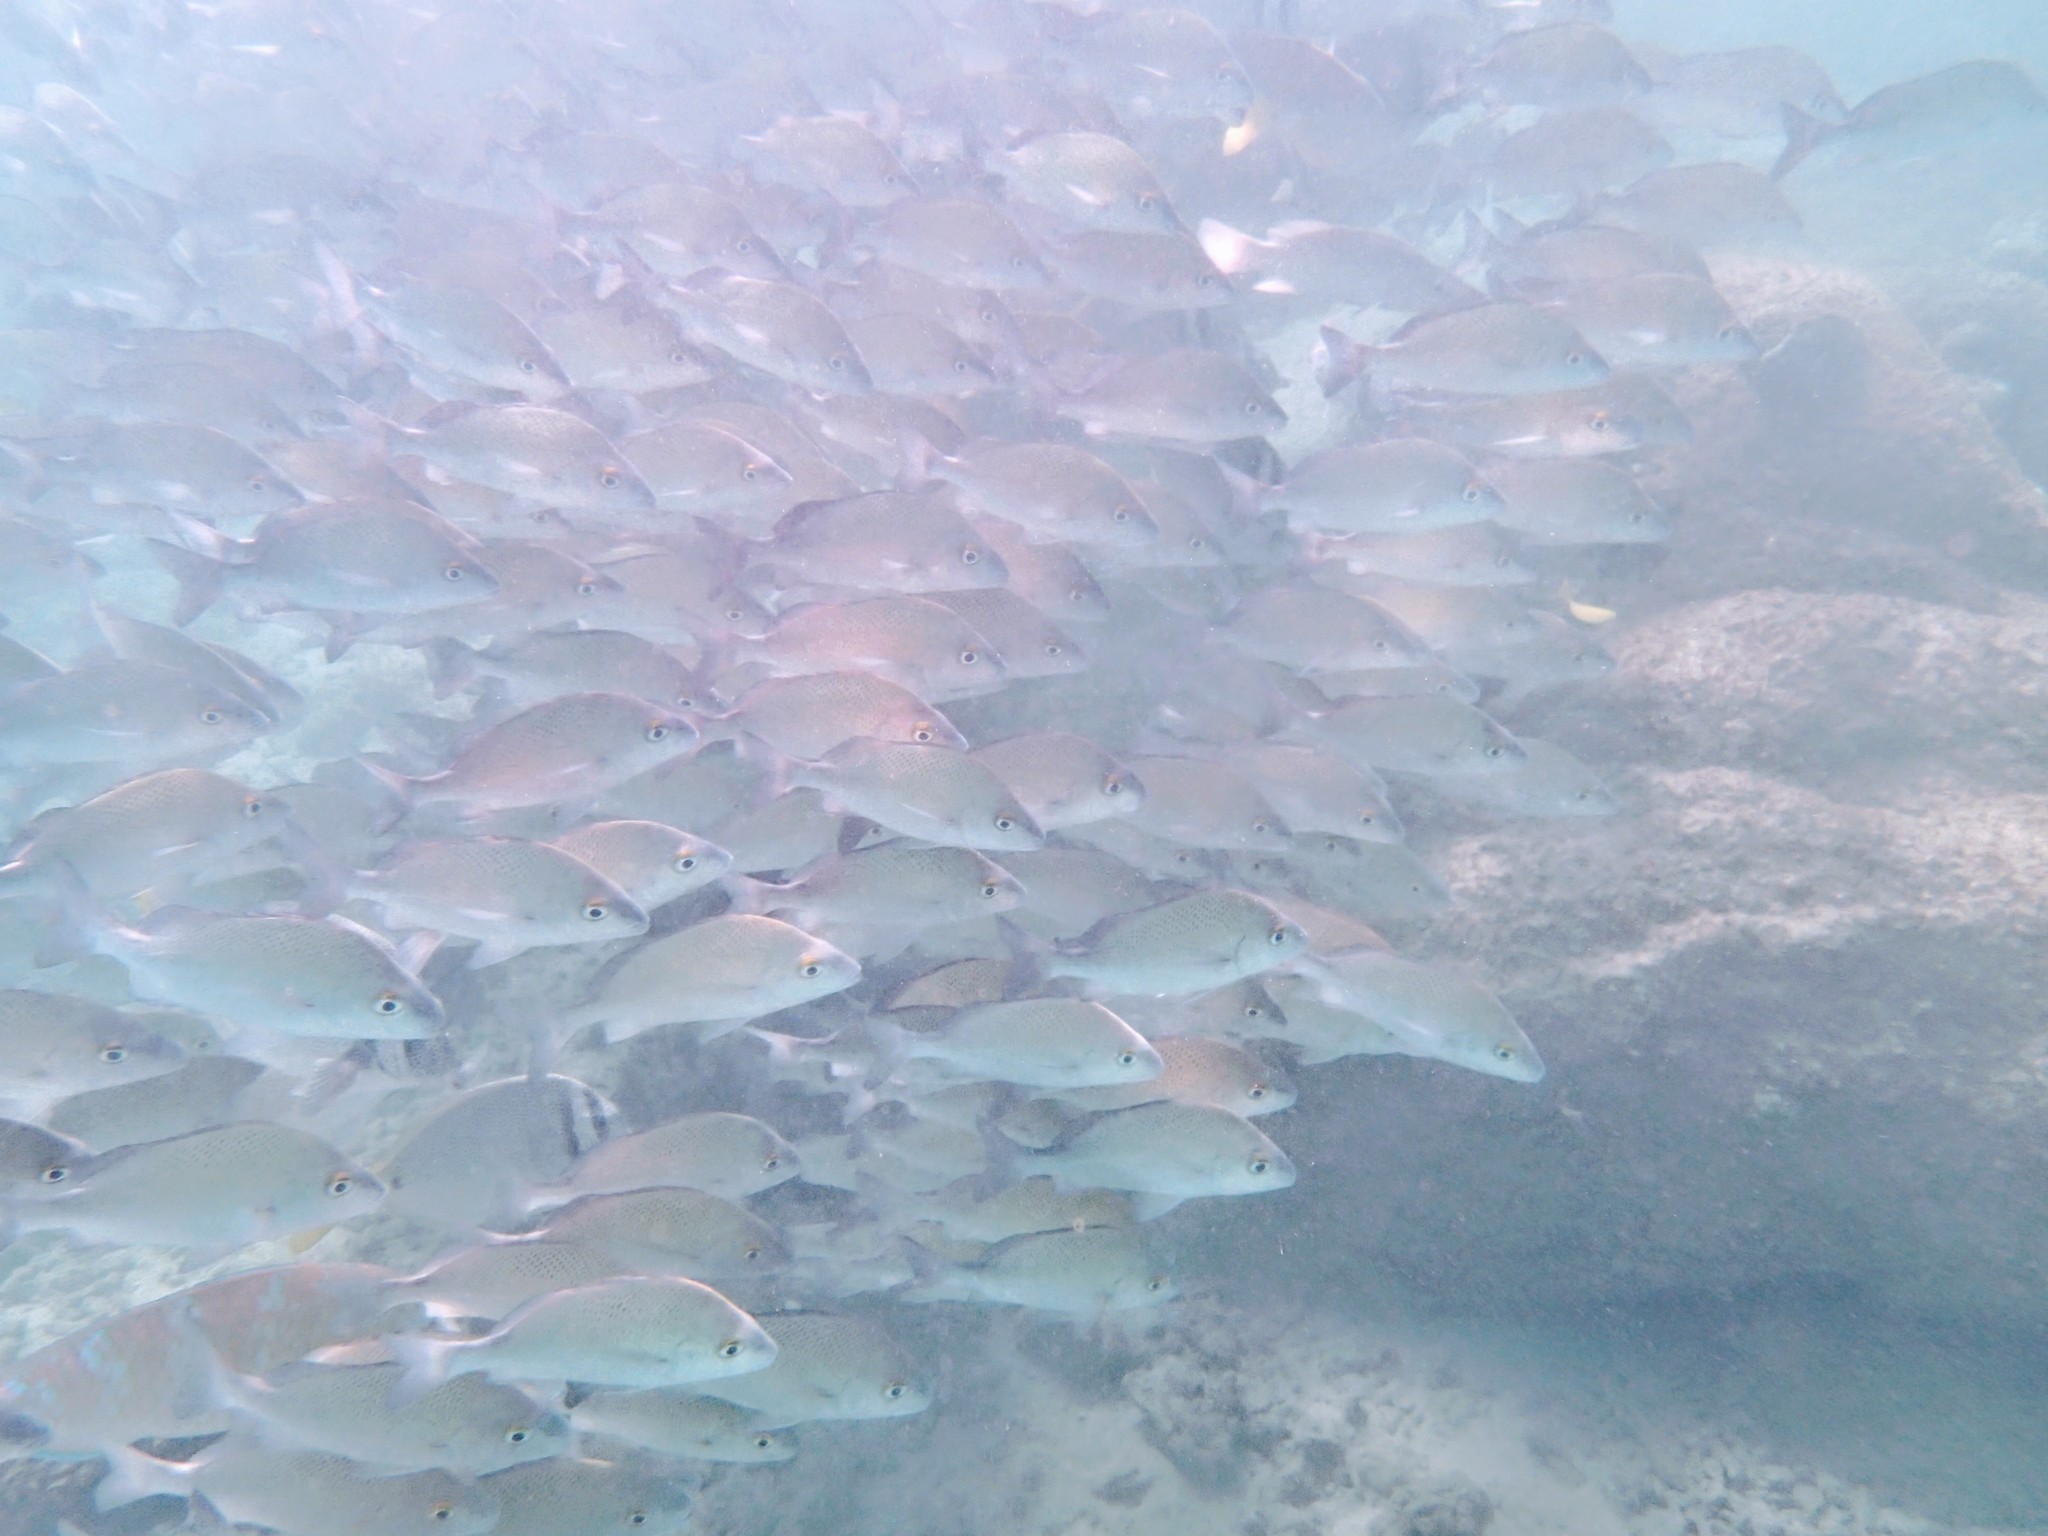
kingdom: Animalia
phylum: Chordata
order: Perciformes
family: Haemulidae
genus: Haemulon
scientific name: Haemulon scudderii
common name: Grey grunt
